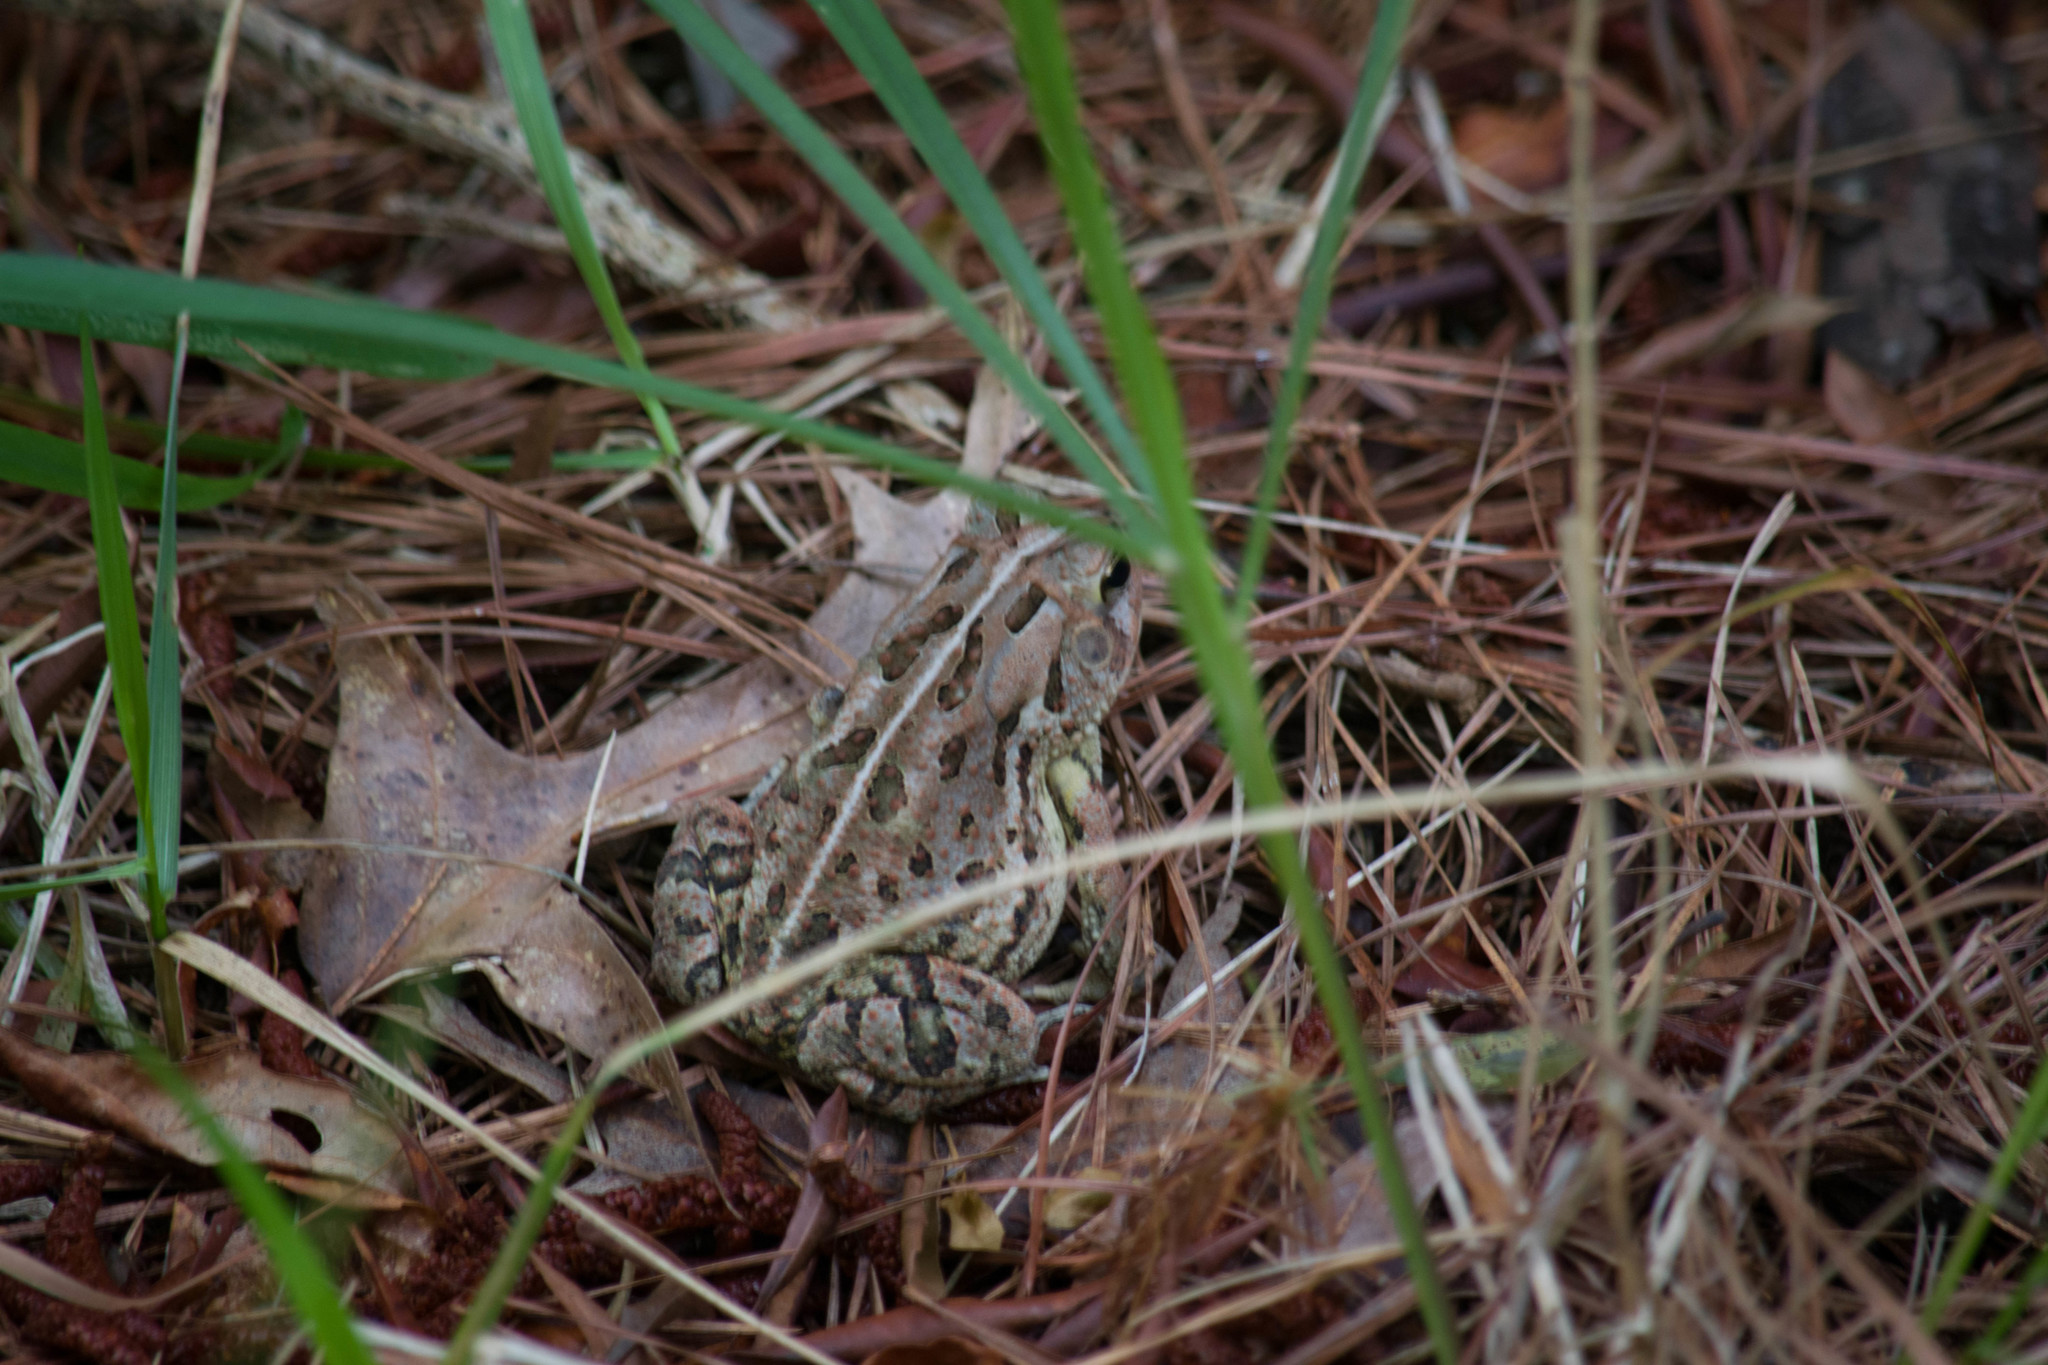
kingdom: Animalia
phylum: Chordata
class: Amphibia
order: Anura
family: Bufonidae
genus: Anaxyrus
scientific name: Anaxyrus fowleri
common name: Fowler's toad
